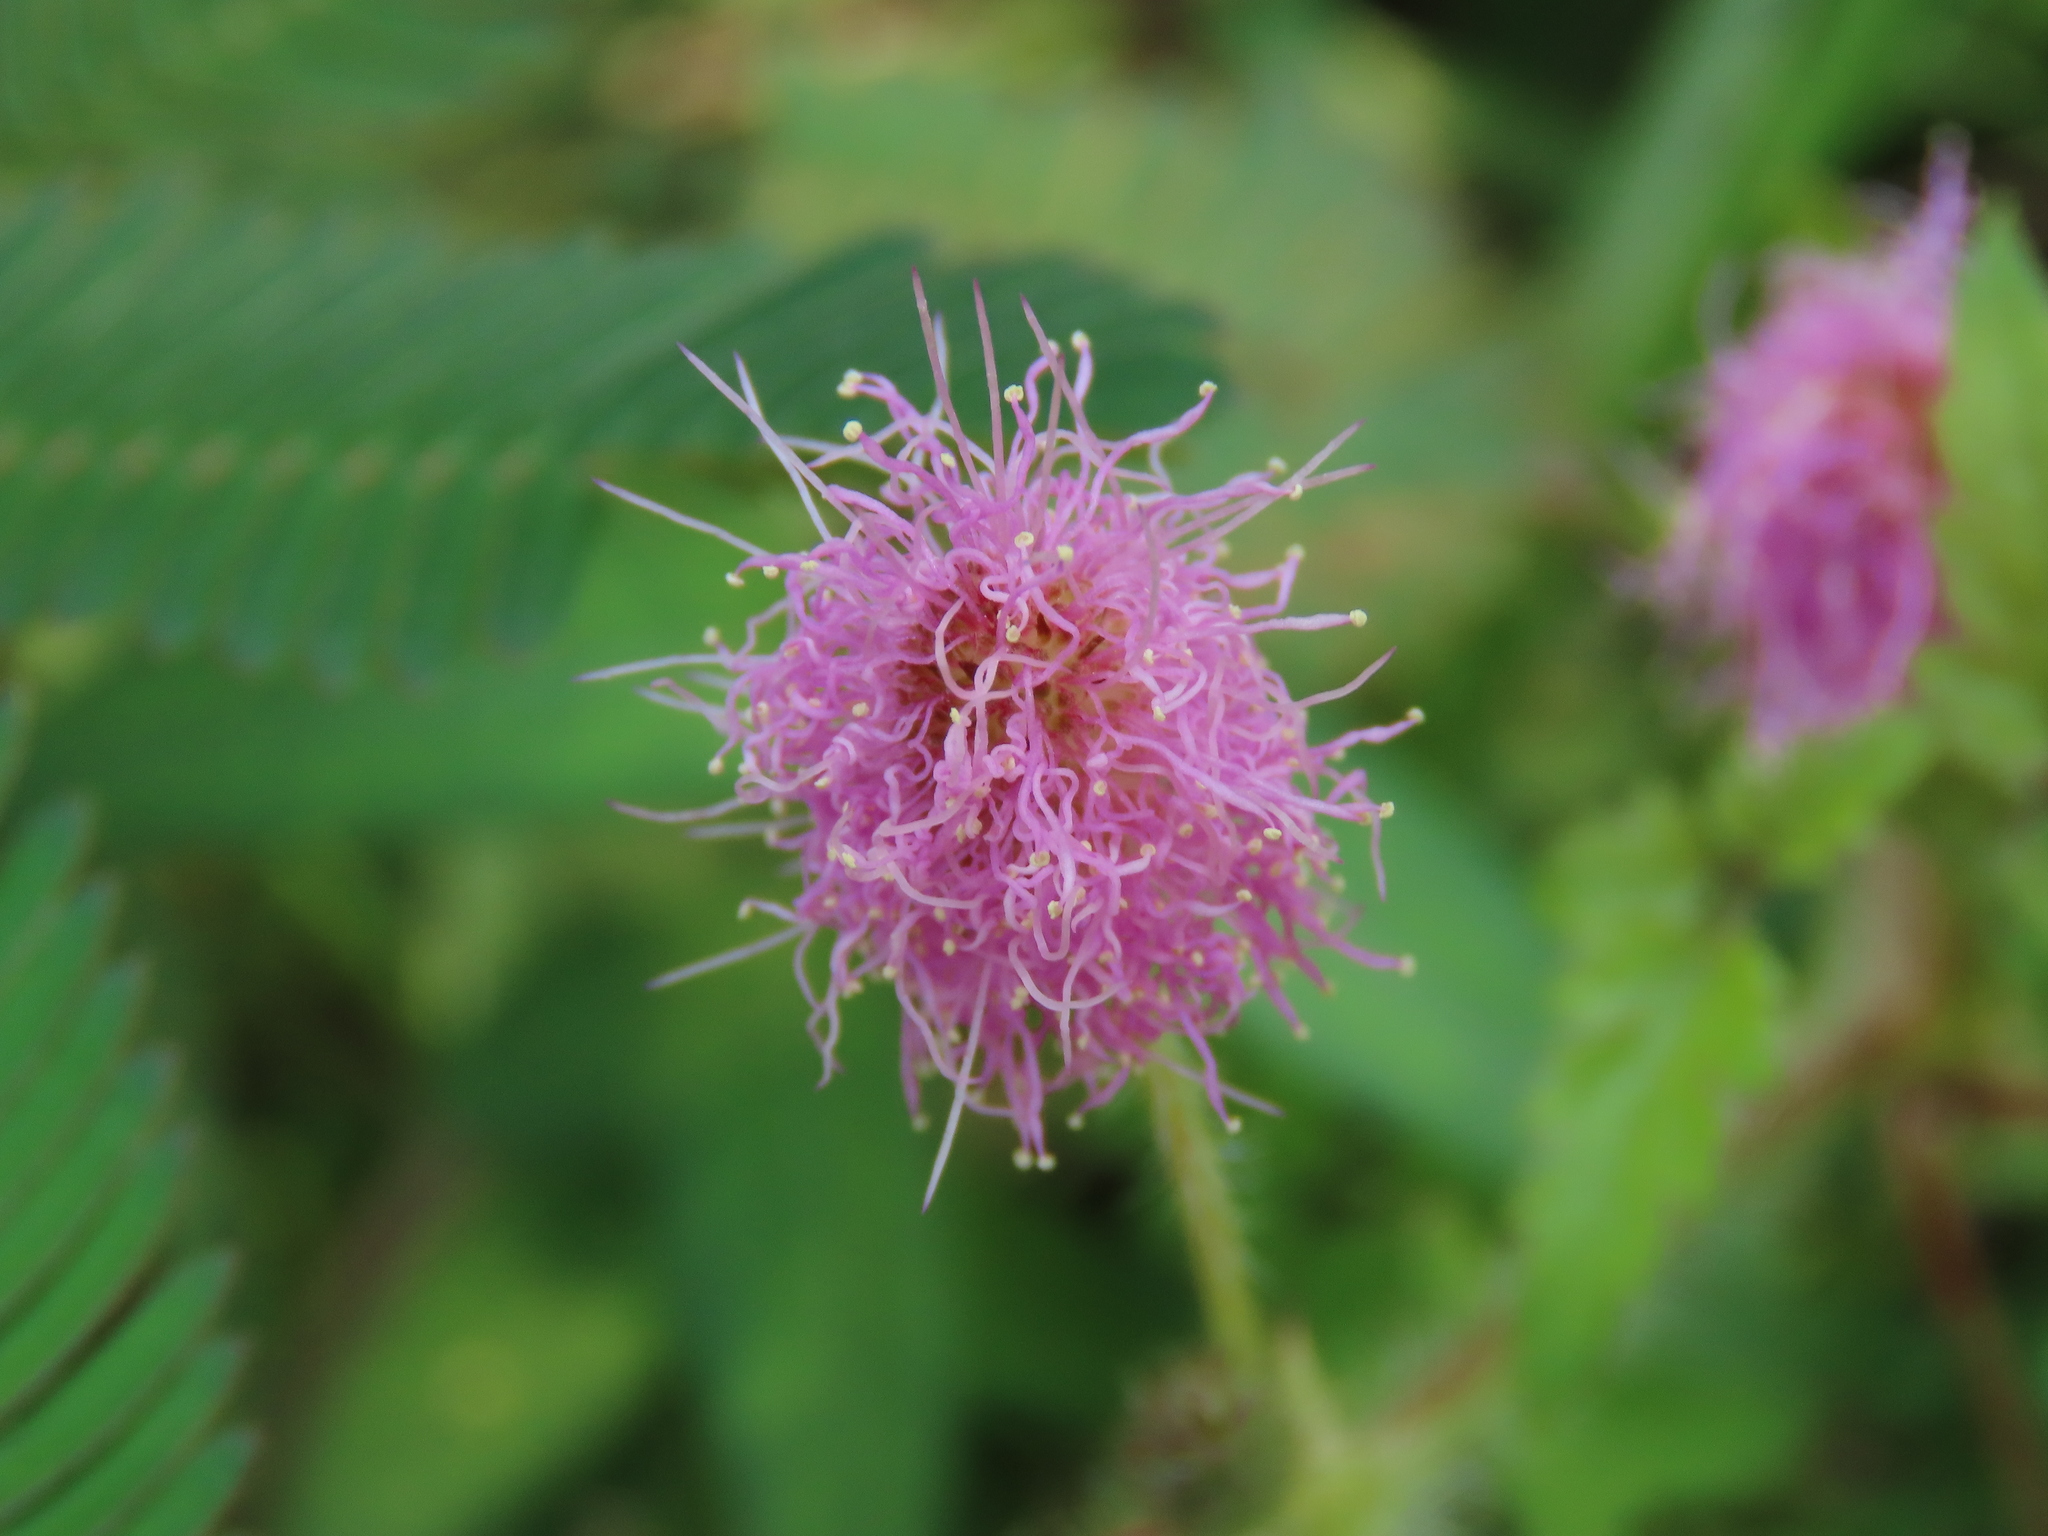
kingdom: Plantae
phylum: Tracheophyta
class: Magnoliopsida
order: Fabales
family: Fabaceae
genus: Mimosa
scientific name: Mimosa pudica
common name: Sensitive plant
